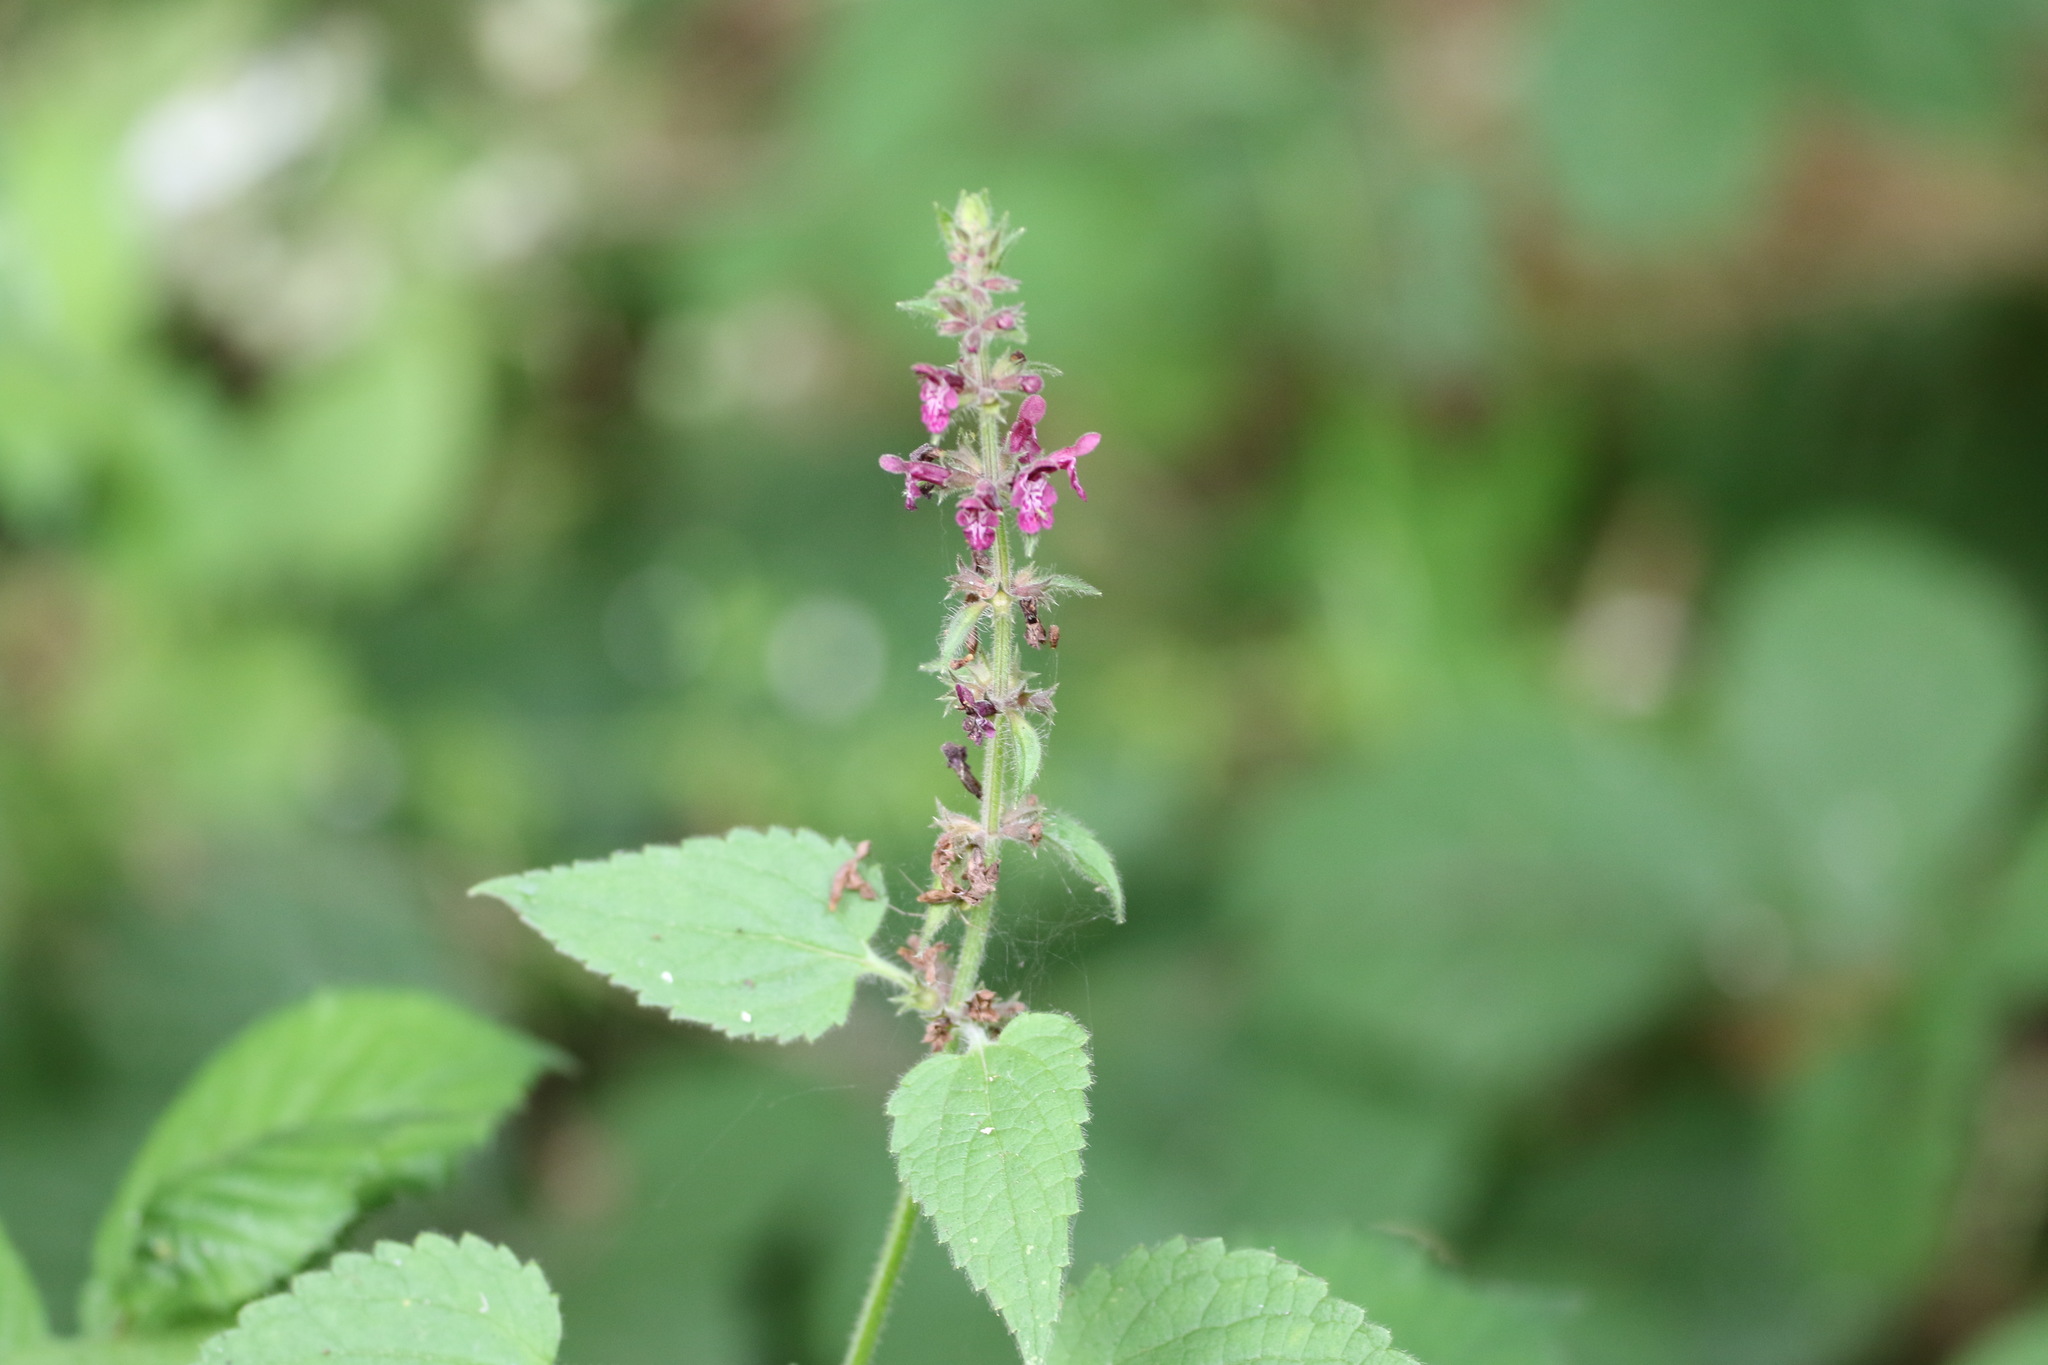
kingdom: Plantae
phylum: Tracheophyta
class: Magnoliopsida
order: Lamiales
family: Lamiaceae
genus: Stachys
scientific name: Stachys sylvatica
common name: Hedge woundwort
